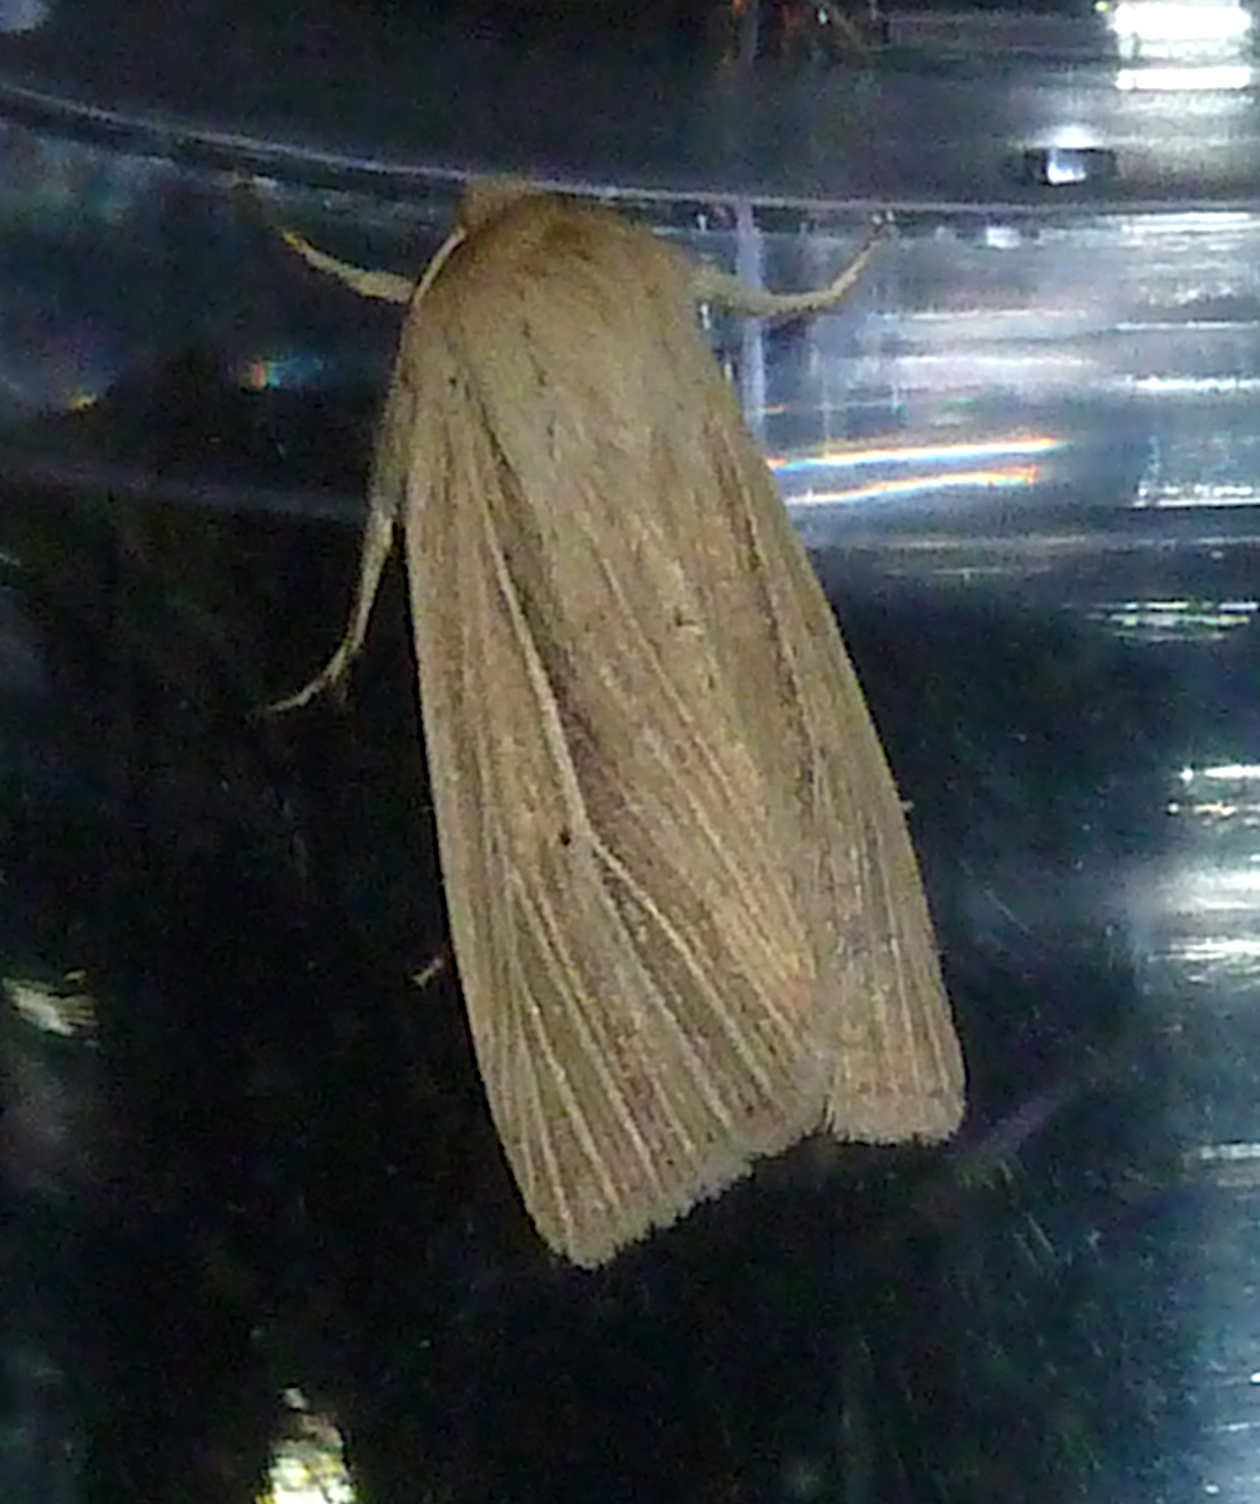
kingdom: Animalia
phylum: Arthropoda
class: Insecta
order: Lepidoptera
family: Noctuidae
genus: Mythimna
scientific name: Mythimna pallens
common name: Common wainscot
